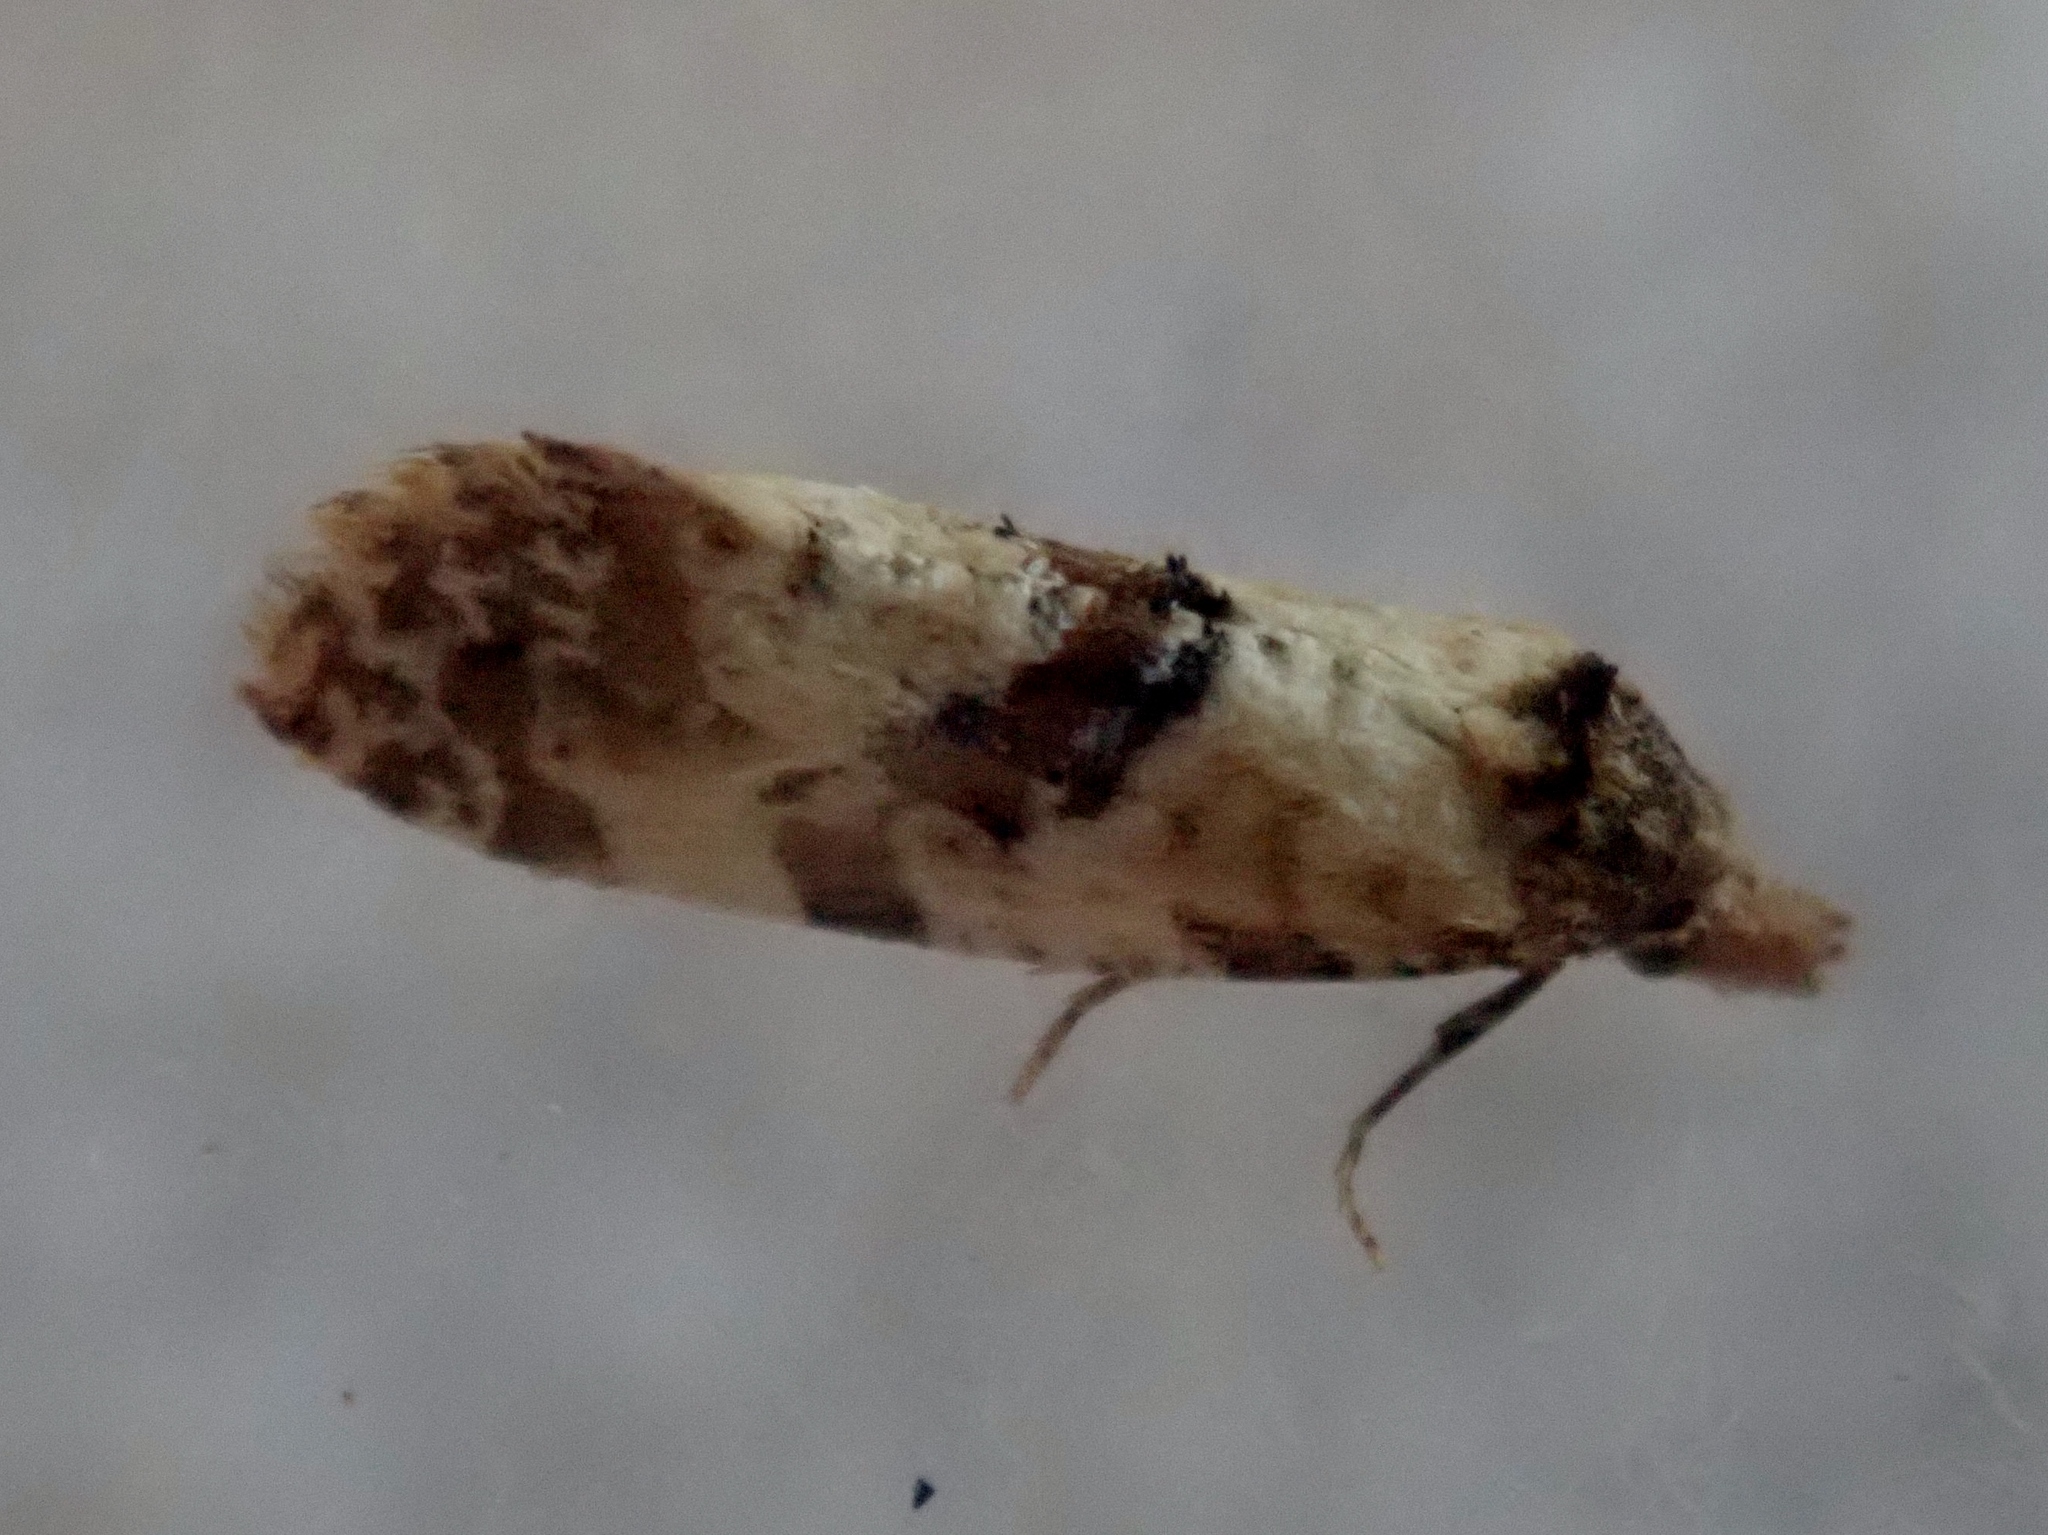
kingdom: Animalia
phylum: Arthropoda
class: Insecta
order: Lepidoptera
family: Tortricidae
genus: Cochylis
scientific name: Cochylis molliculana
